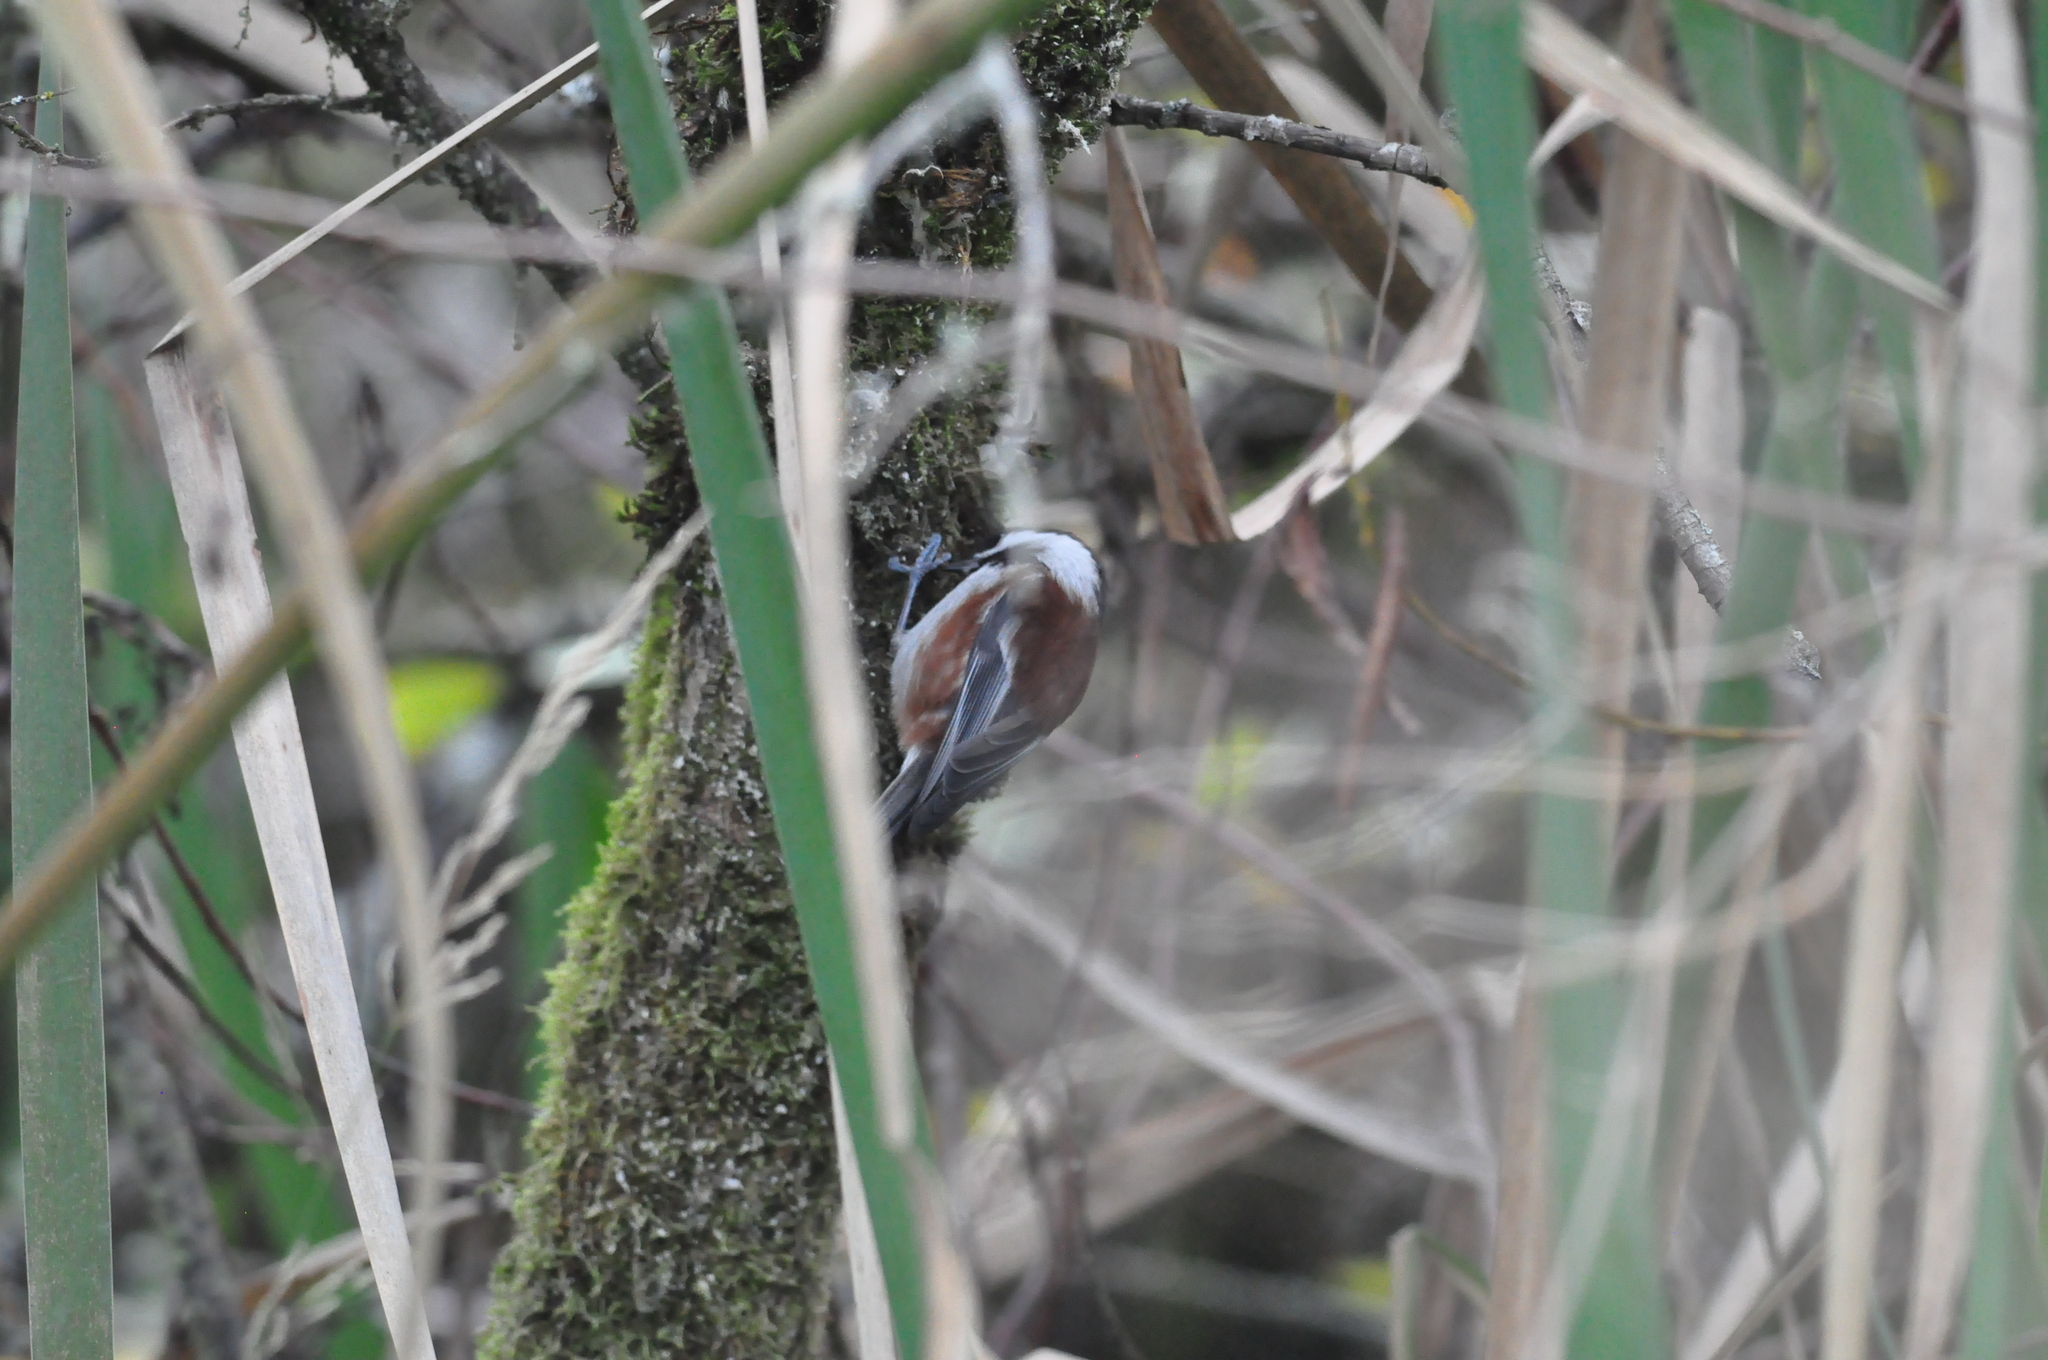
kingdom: Animalia
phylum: Chordata
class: Aves
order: Passeriformes
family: Paridae
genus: Poecile
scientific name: Poecile rufescens
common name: Chestnut-backed chickadee
